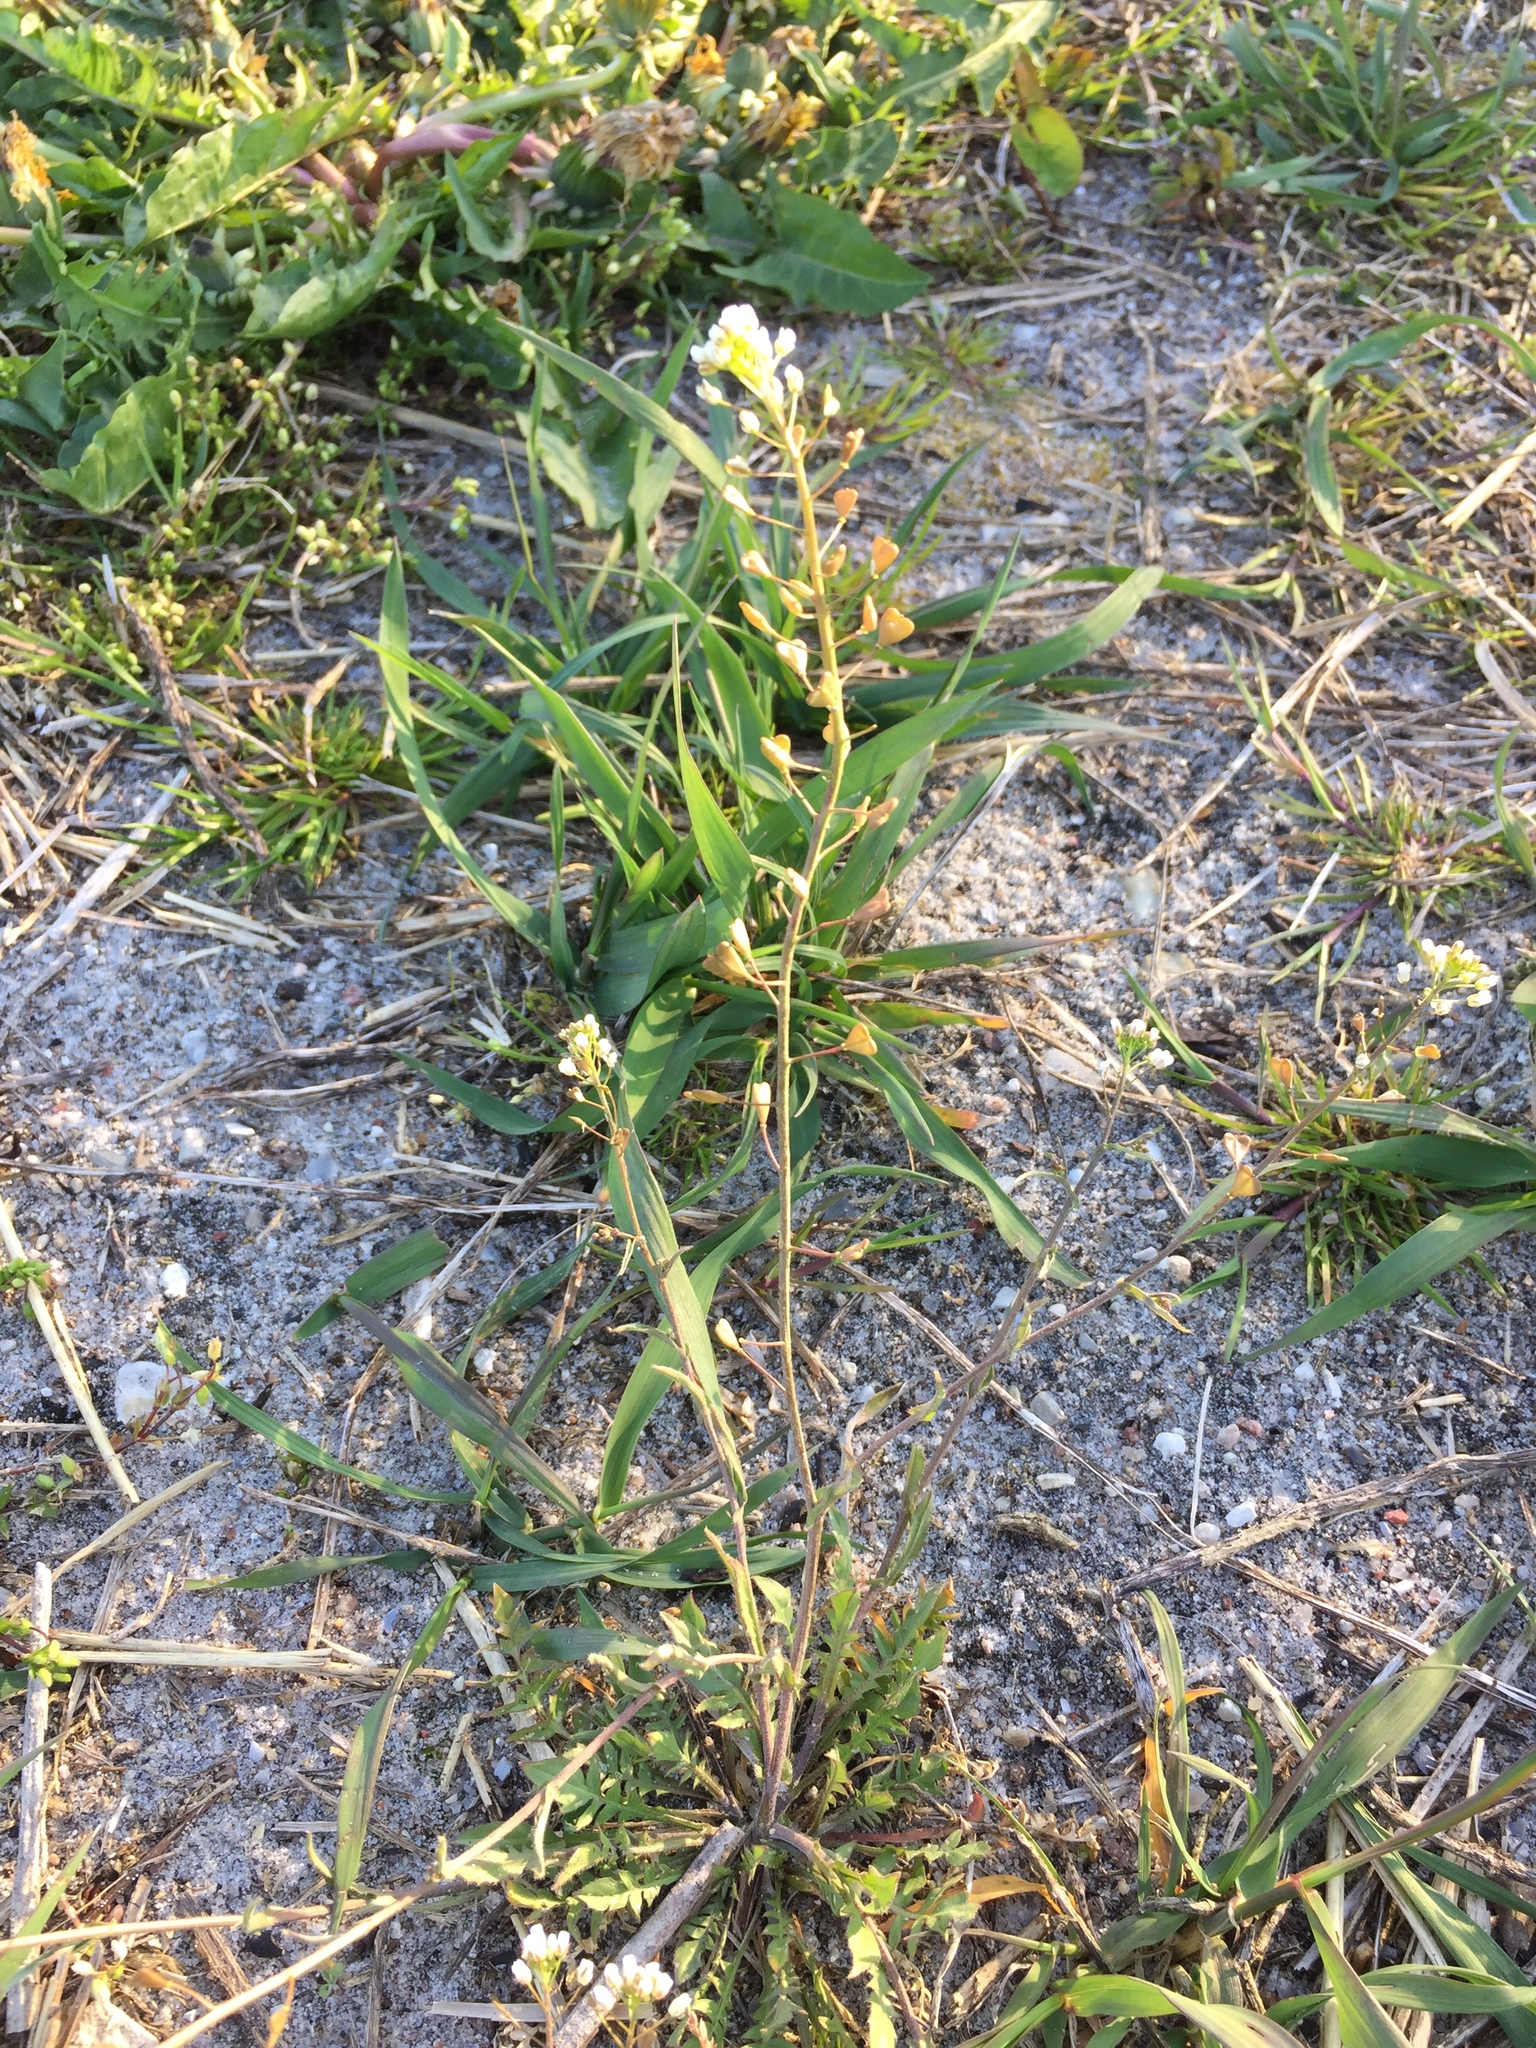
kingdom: Plantae
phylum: Tracheophyta
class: Magnoliopsida
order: Brassicales
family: Brassicaceae
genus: Capsella
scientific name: Capsella bursa-pastoris
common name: Shepherd's purse
